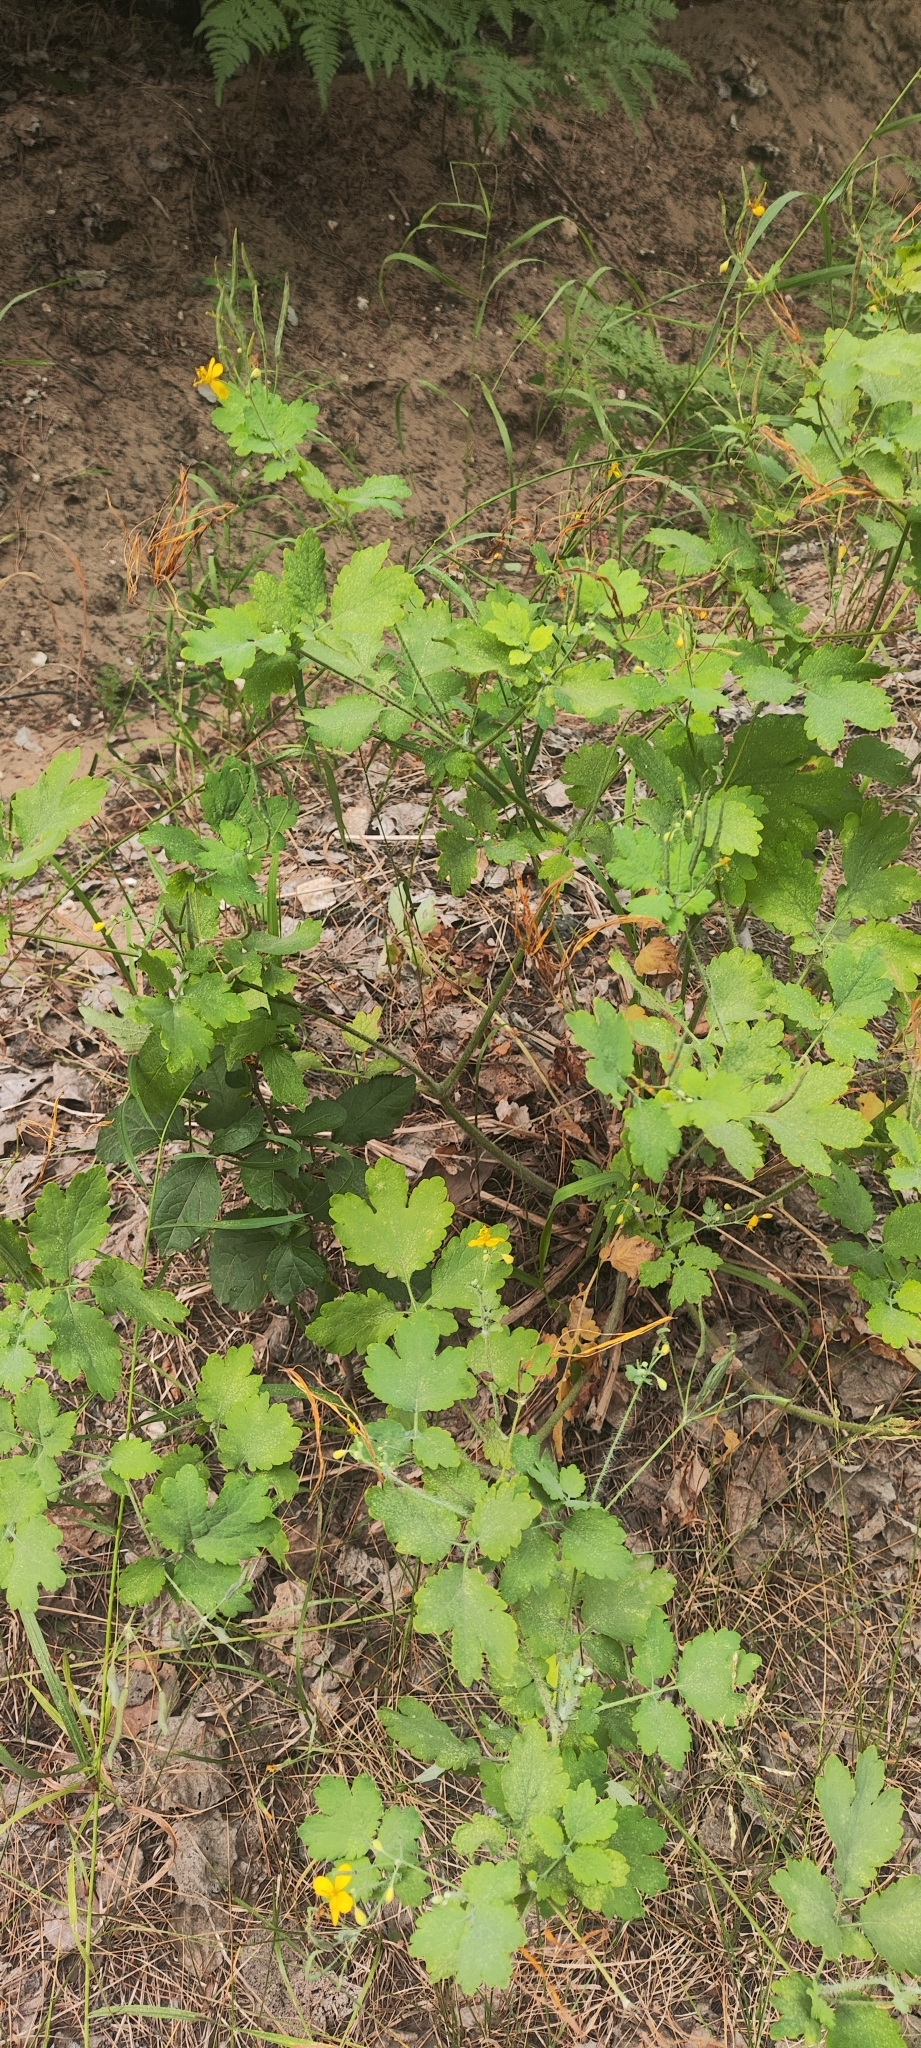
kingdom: Plantae
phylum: Tracheophyta
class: Magnoliopsida
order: Ranunculales
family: Papaveraceae
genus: Chelidonium
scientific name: Chelidonium majus
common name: Greater celandine
